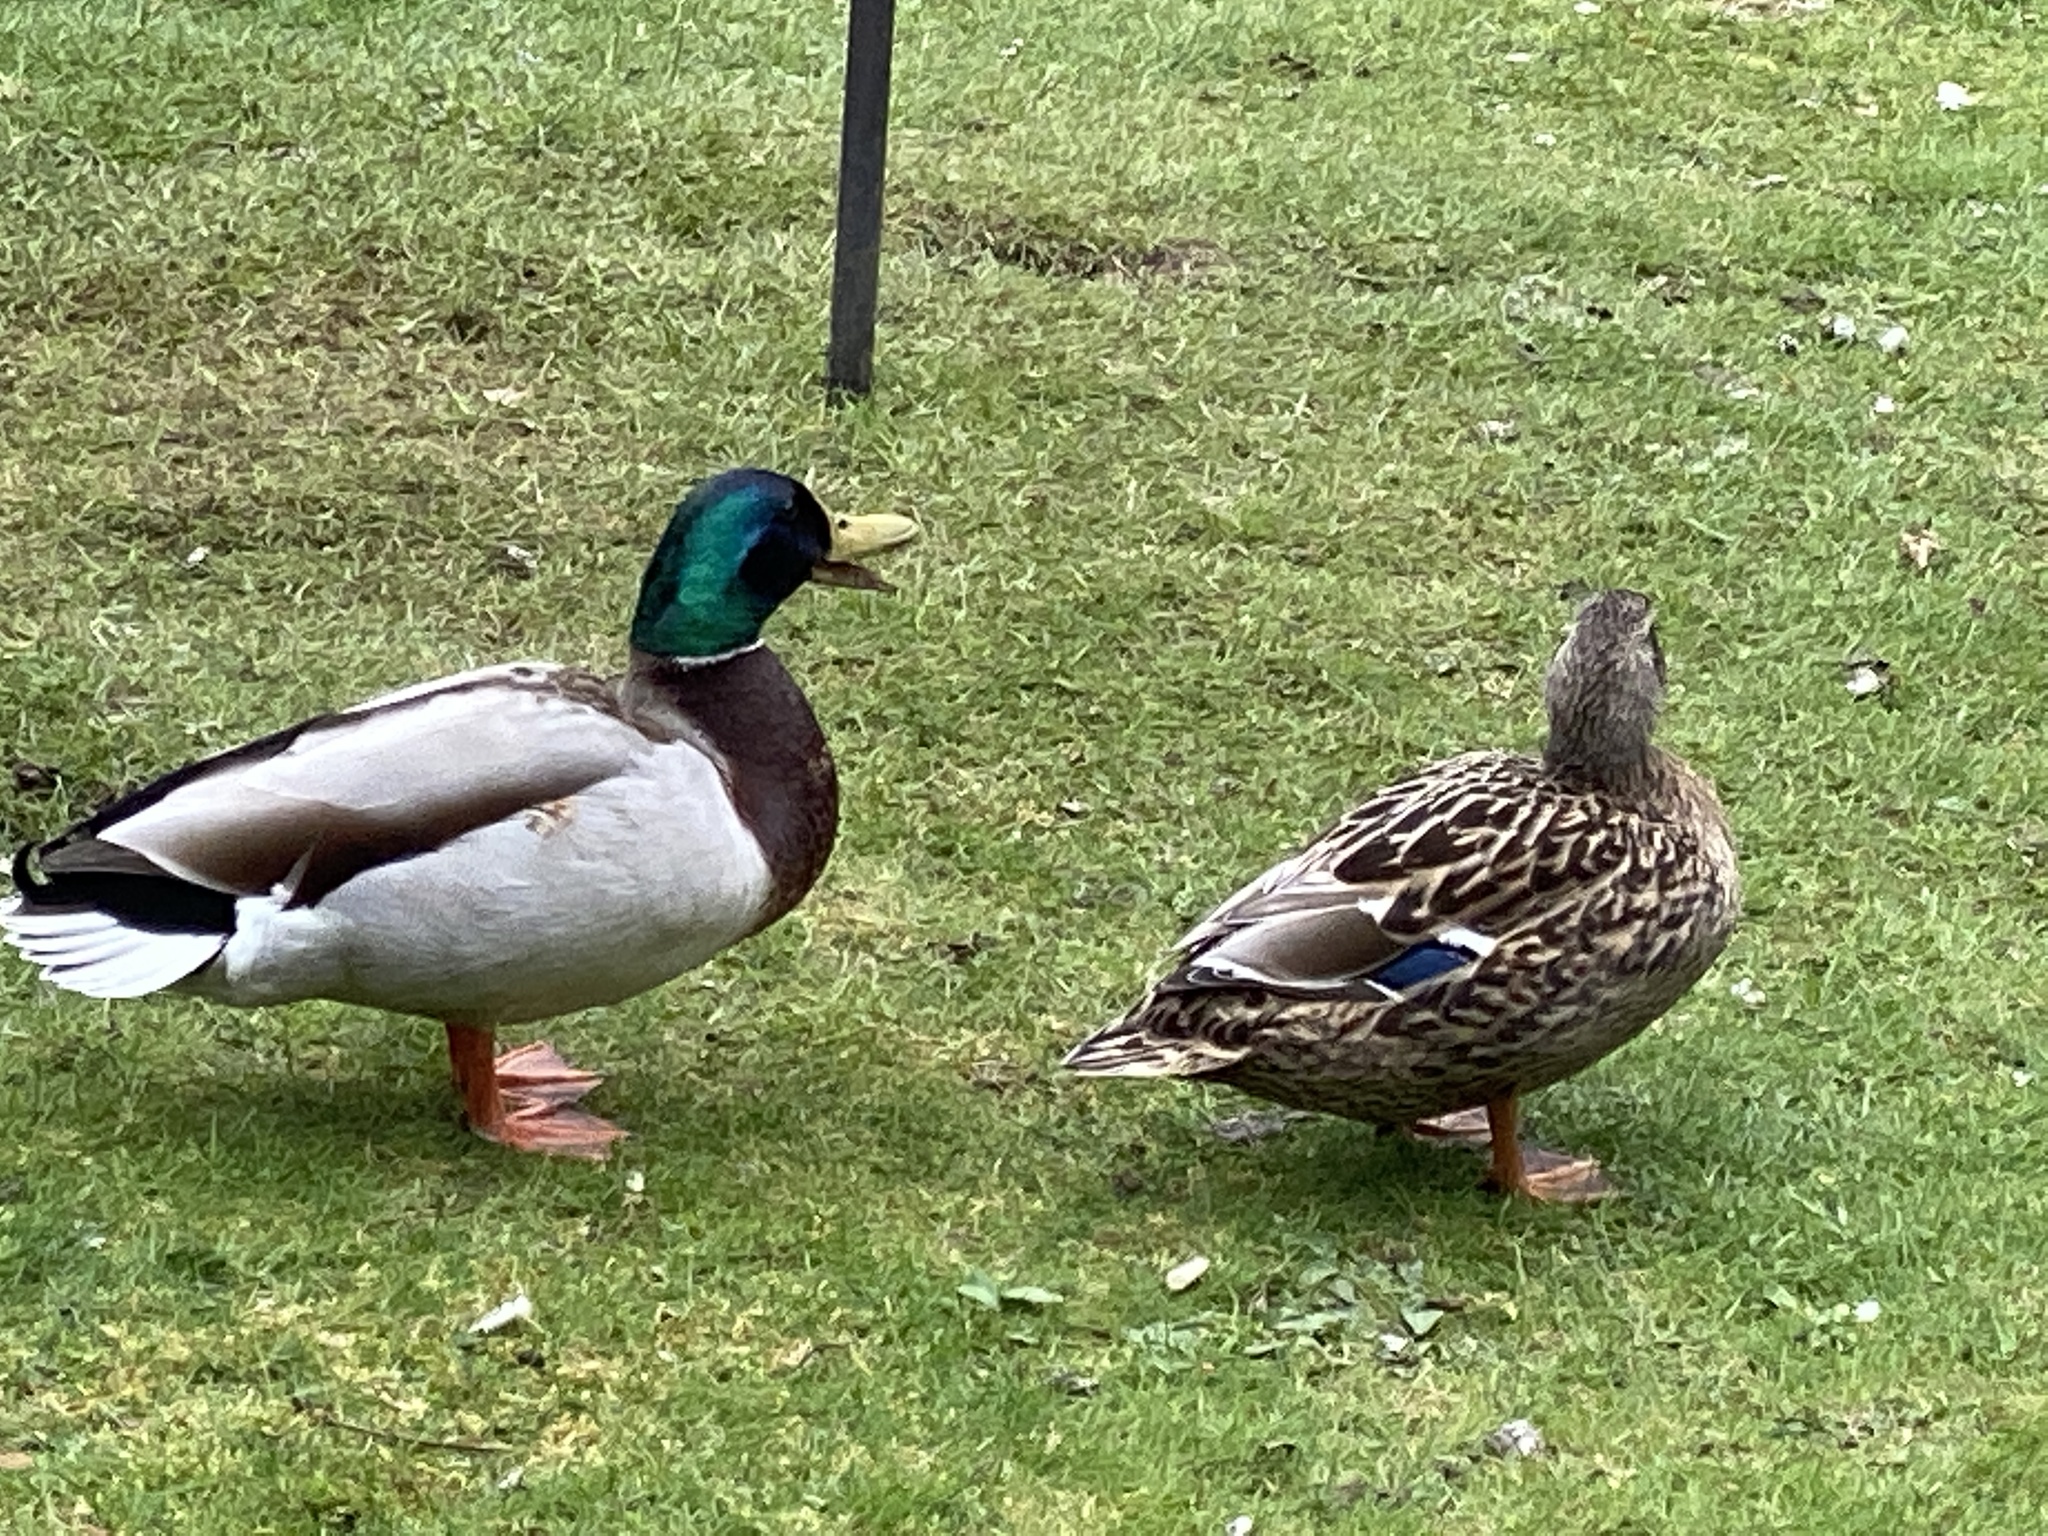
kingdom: Animalia
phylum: Chordata
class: Aves
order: Anseriformes
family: Anatidae
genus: Anas
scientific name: Anas platyrhynchos
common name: Mallard
